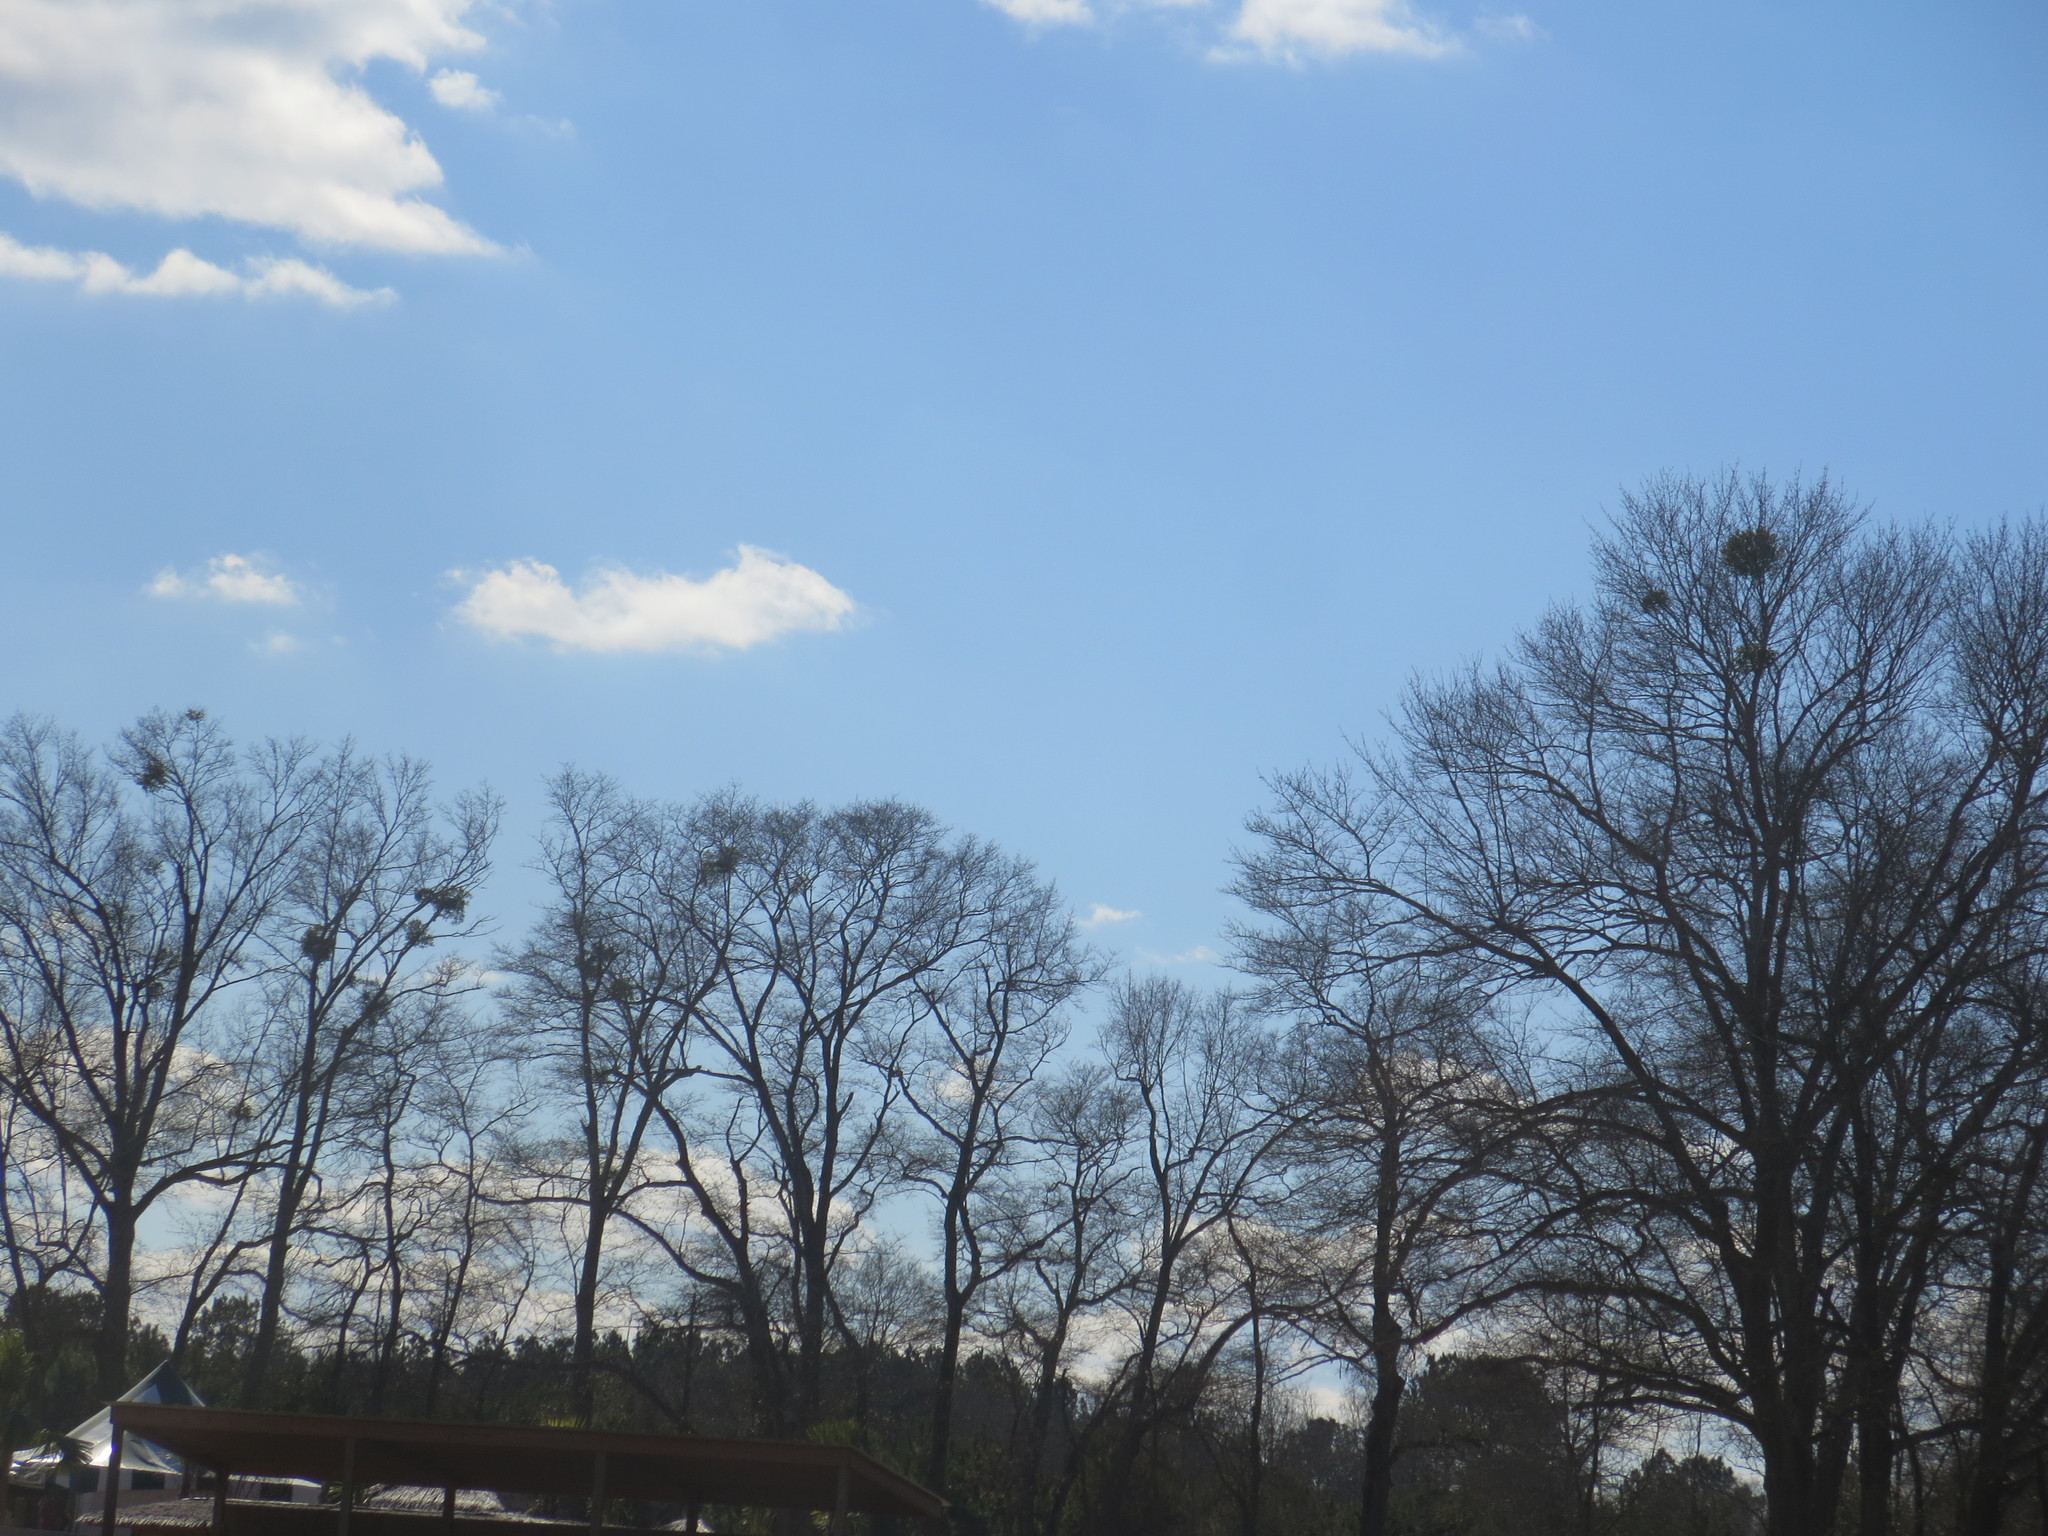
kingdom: Plantae
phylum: Tracheophyta
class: Magnoliopsida
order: Santalales
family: Viscaceae
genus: Phoradendron
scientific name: Phoradendron leucarpum
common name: Pacific mistletoe
